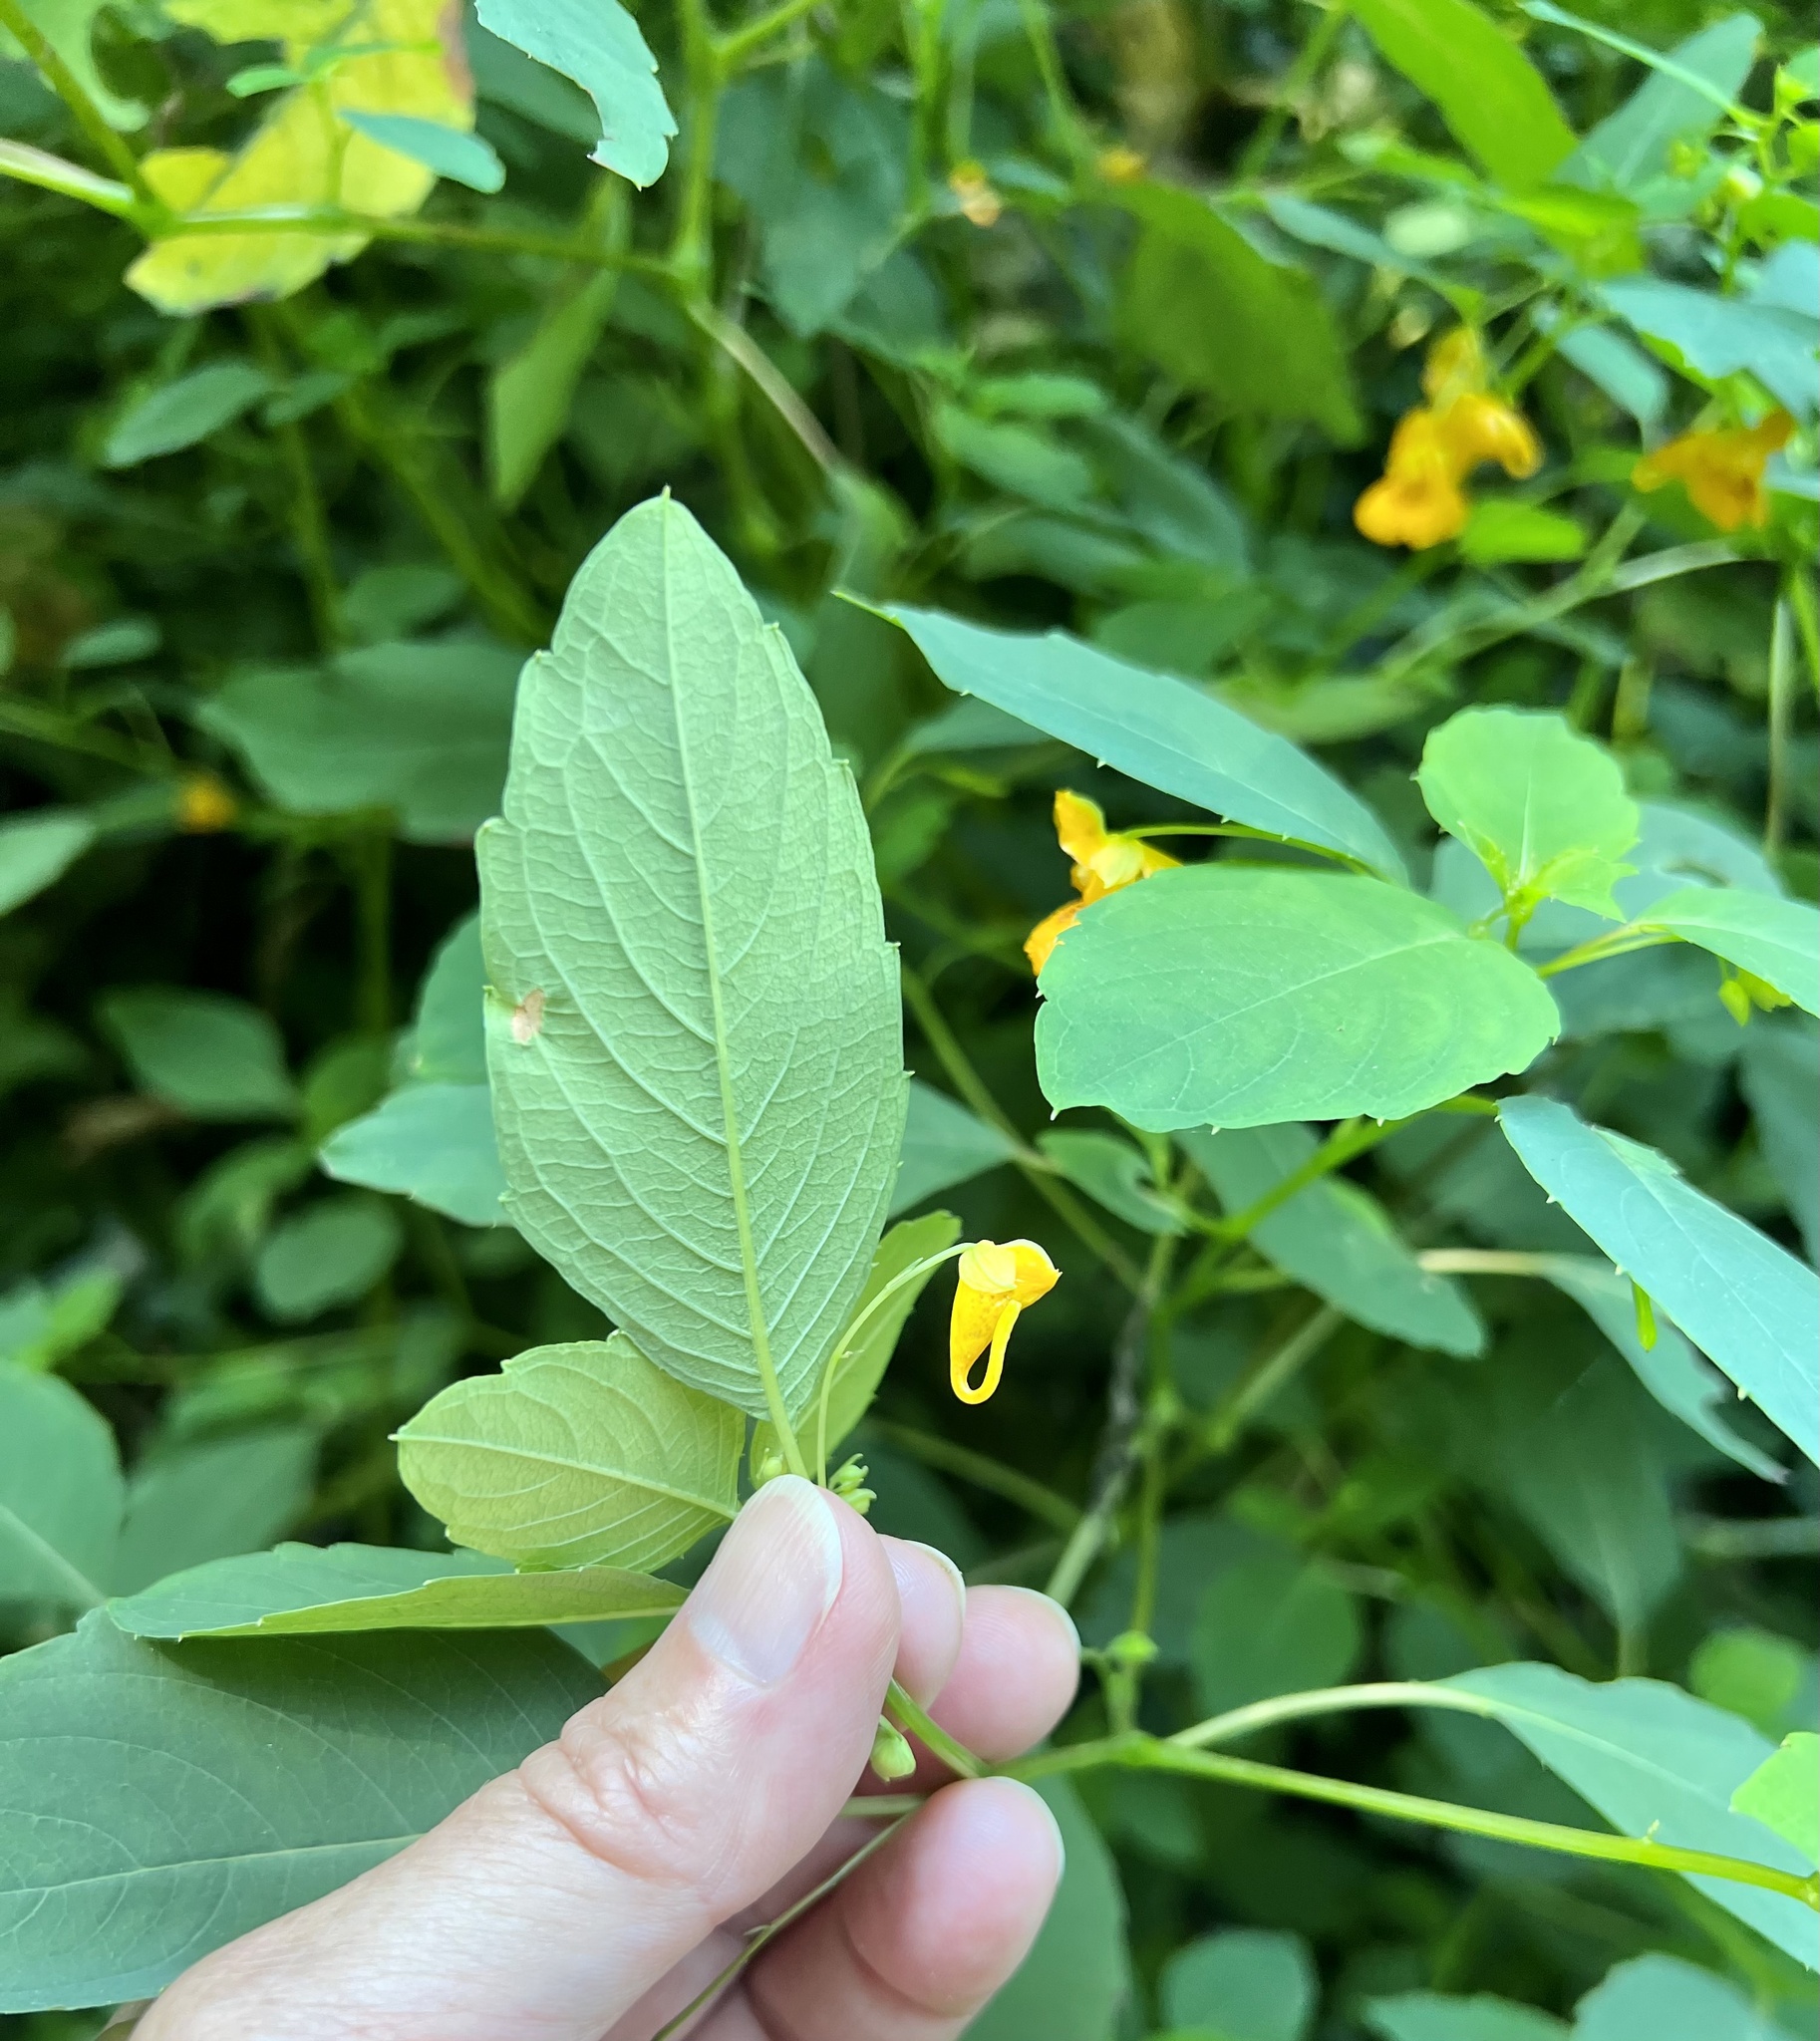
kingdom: Plantae
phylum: Tracheophyta
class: Magnoliopsida
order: Ericales
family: Balsaminaceae
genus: Impatiens
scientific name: Impatiens capensis
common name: Orange balsam
